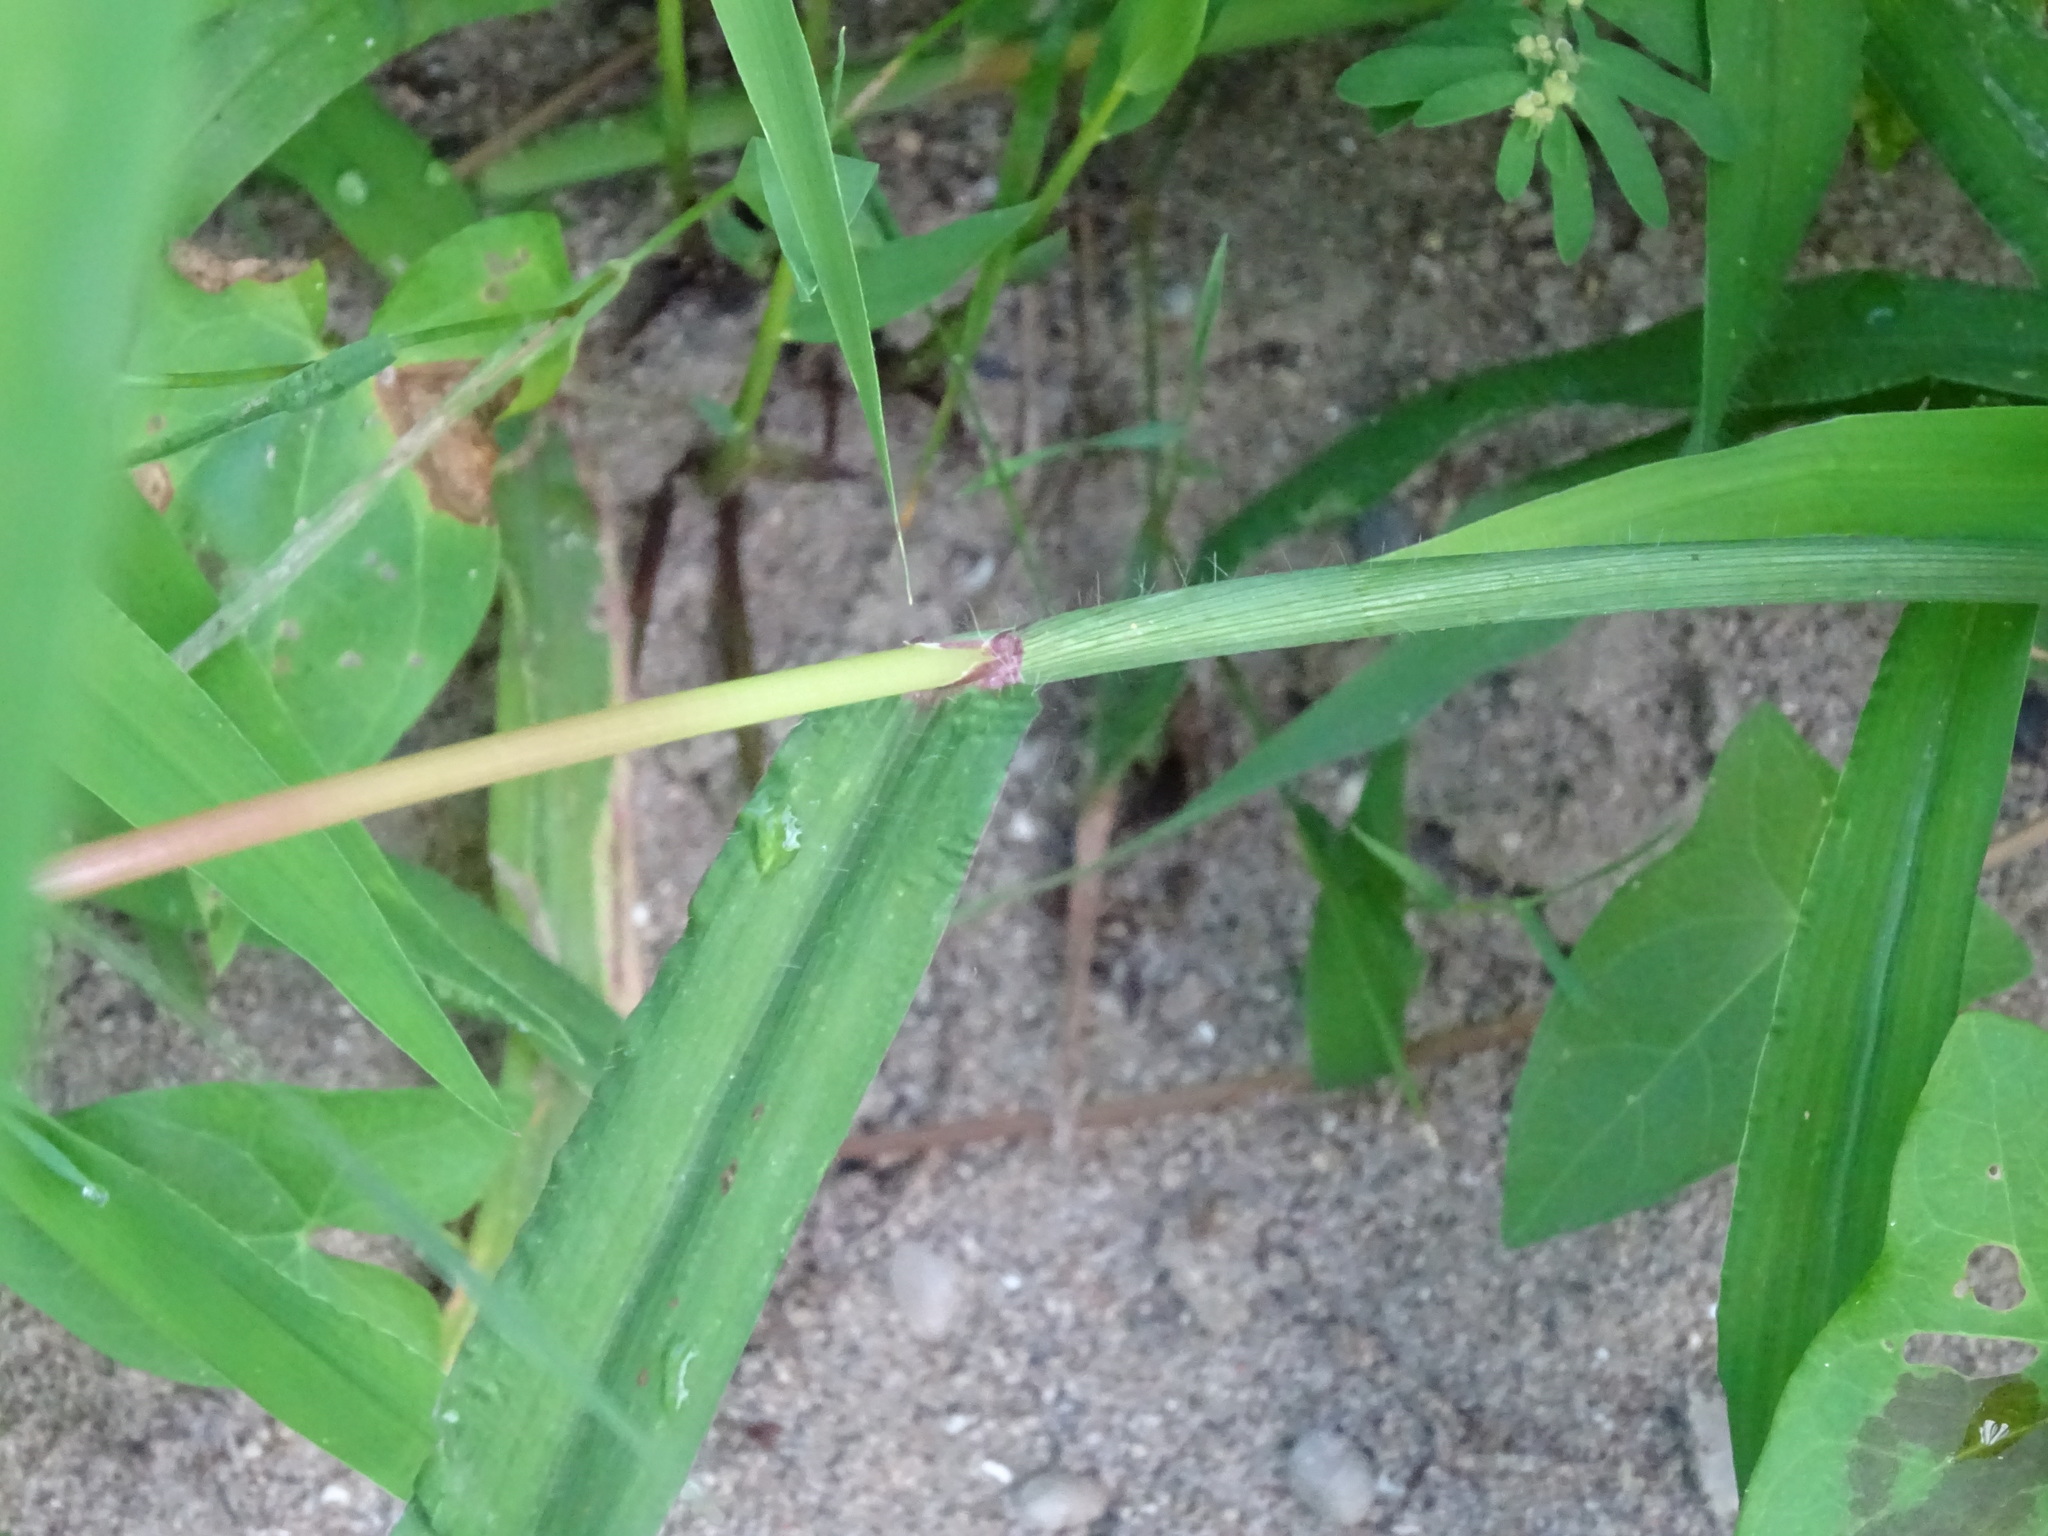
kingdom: Plantae
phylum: Tracheophyta
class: Liliopsida
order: Poales
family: Poaceae
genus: Digitaria
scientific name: Digitaria sanguinalis
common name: Hairy crabgrass
